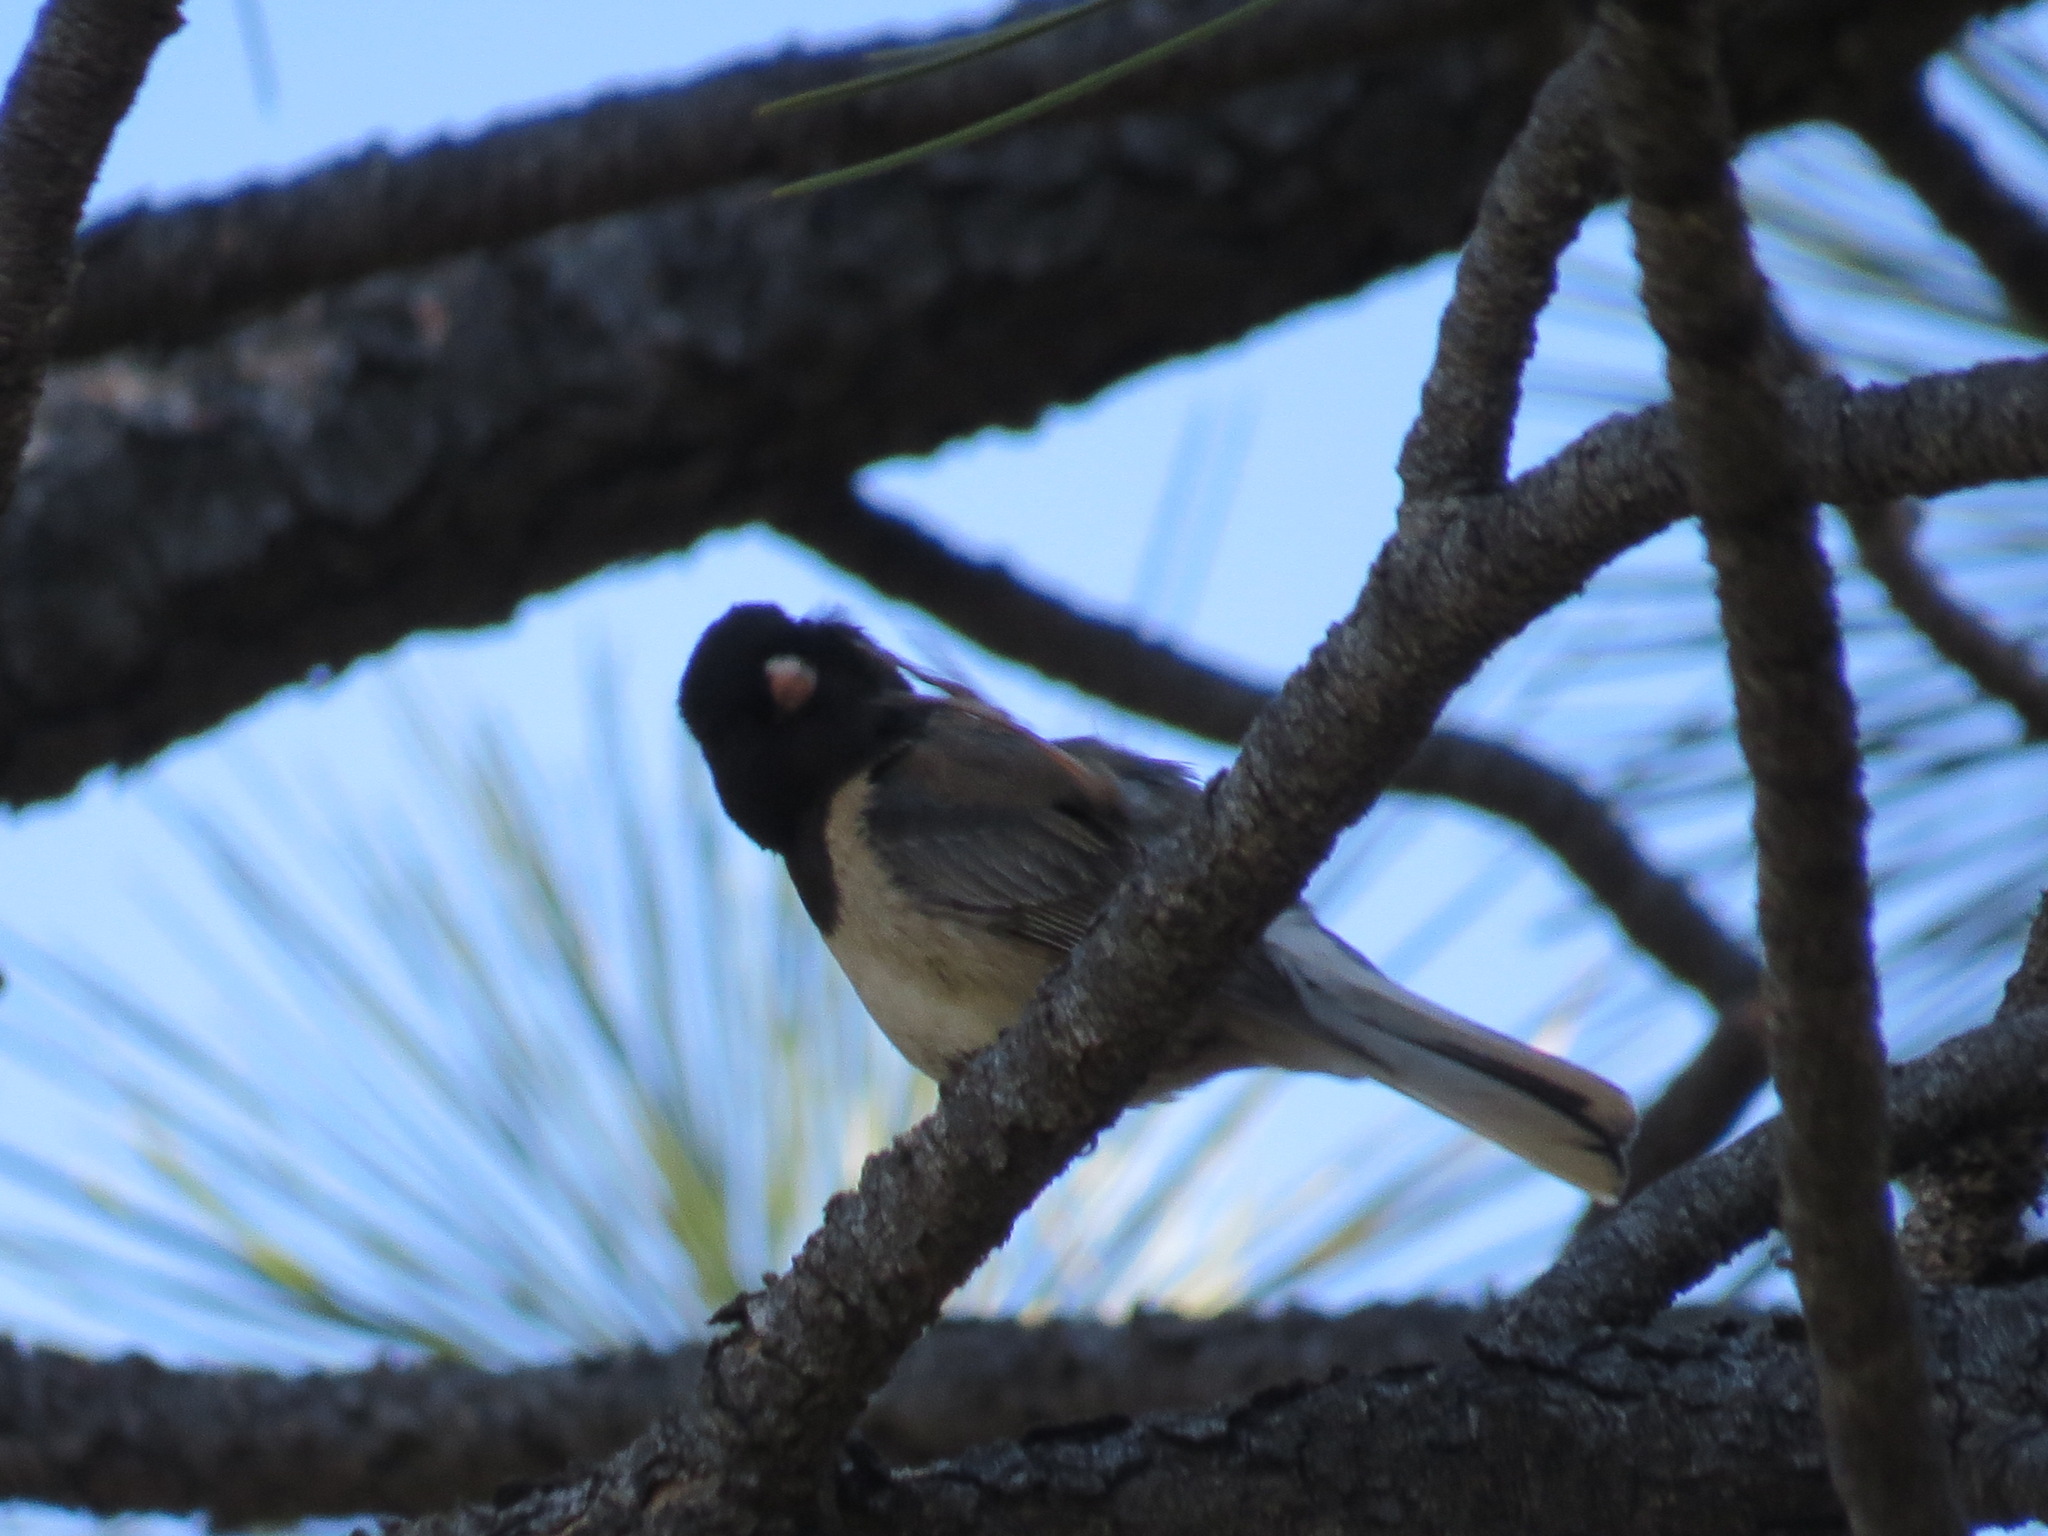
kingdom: Animalia
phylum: Chordata
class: Aves
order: Passeriformes
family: Passerellidae
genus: Junco
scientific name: Junco hyemalis
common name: Dark-eyed junco
